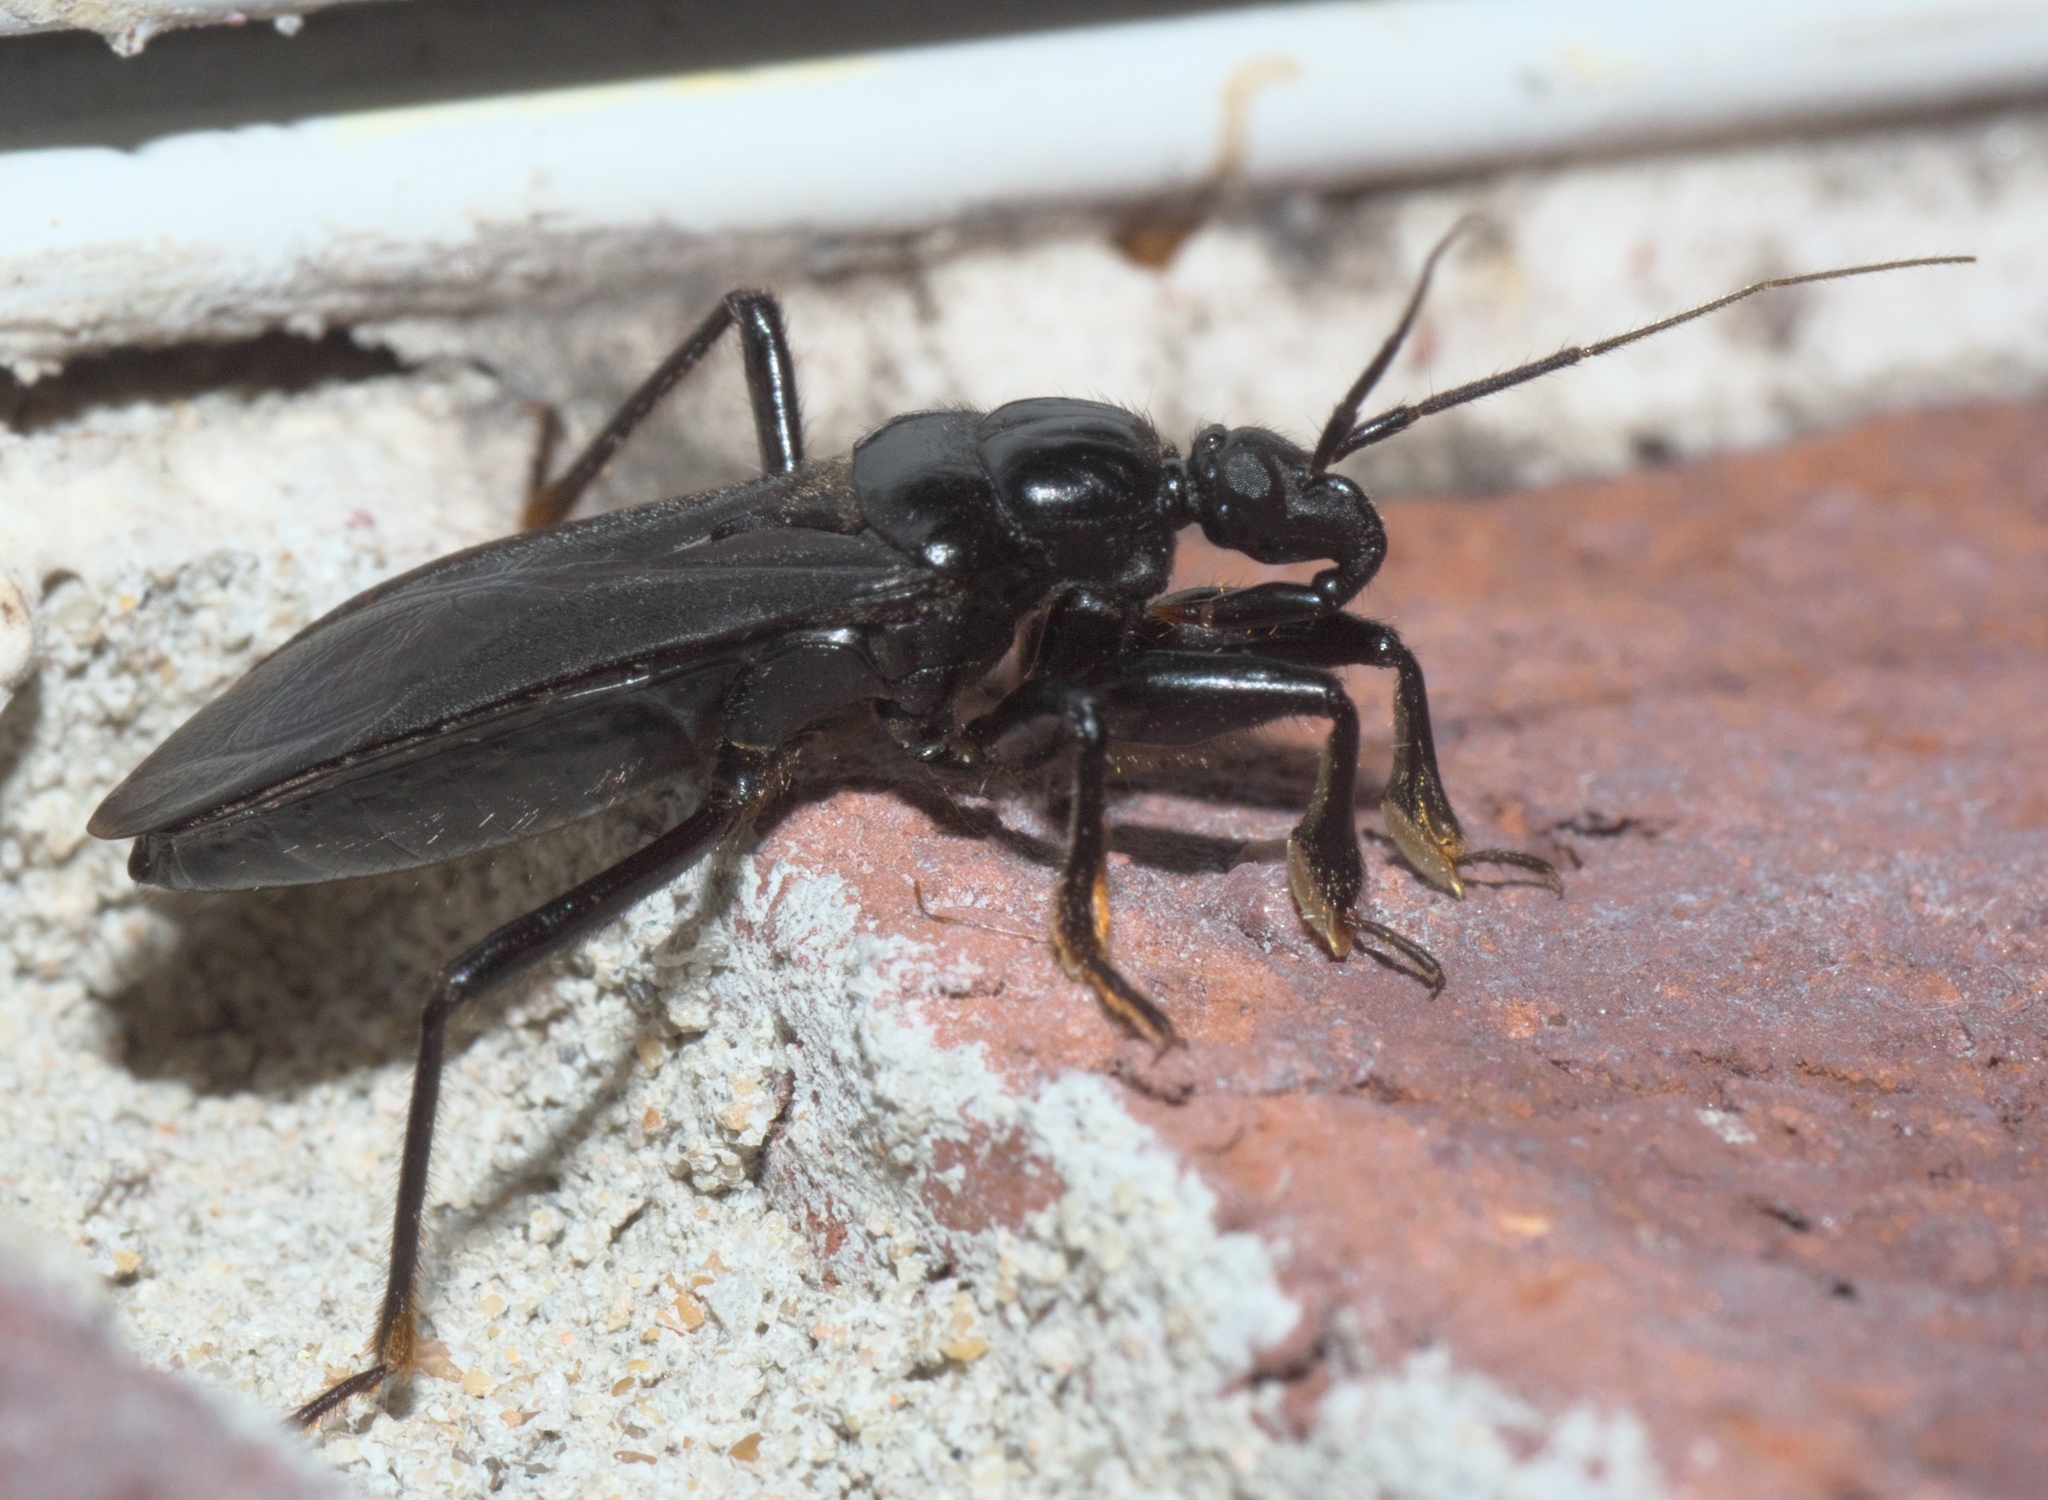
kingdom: Animalia
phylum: Arthropoda
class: Insecta
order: Hemiptera
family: Reduviidae
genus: Melanolestes
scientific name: Melanolestes picipes
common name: Assassin bug
